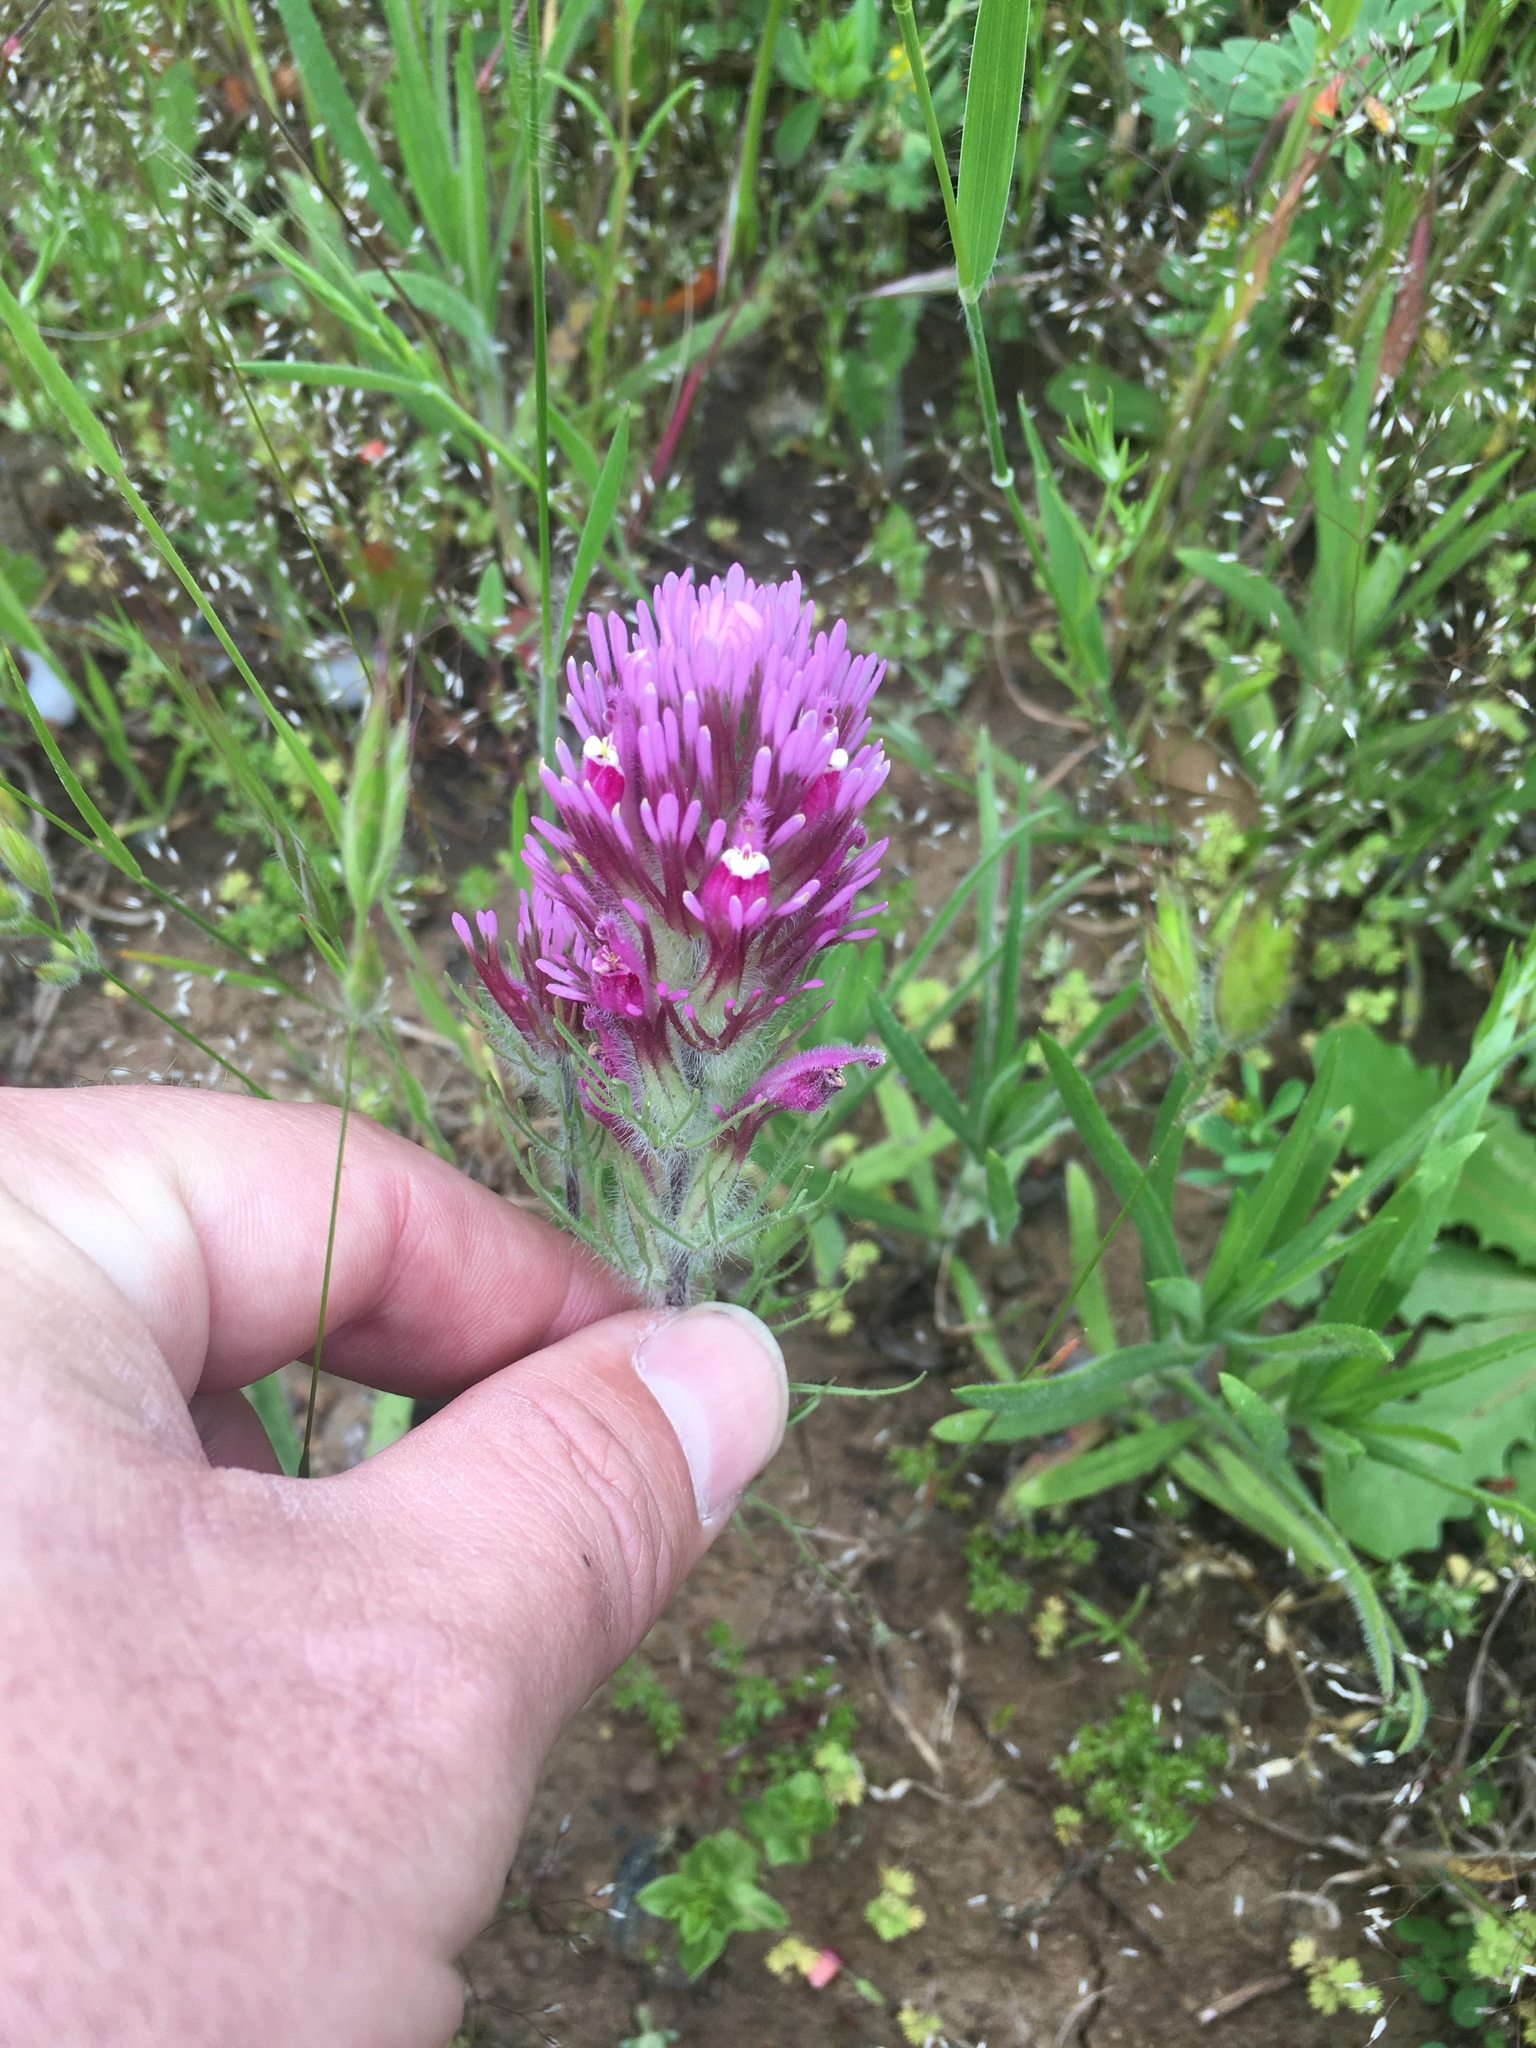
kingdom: Plantae
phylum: Tracheophyta
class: Magnoliopsida
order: Lamiales
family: Orobanchaceae
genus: Castilleja
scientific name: Castilleja exserta
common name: Purple owl-clover
